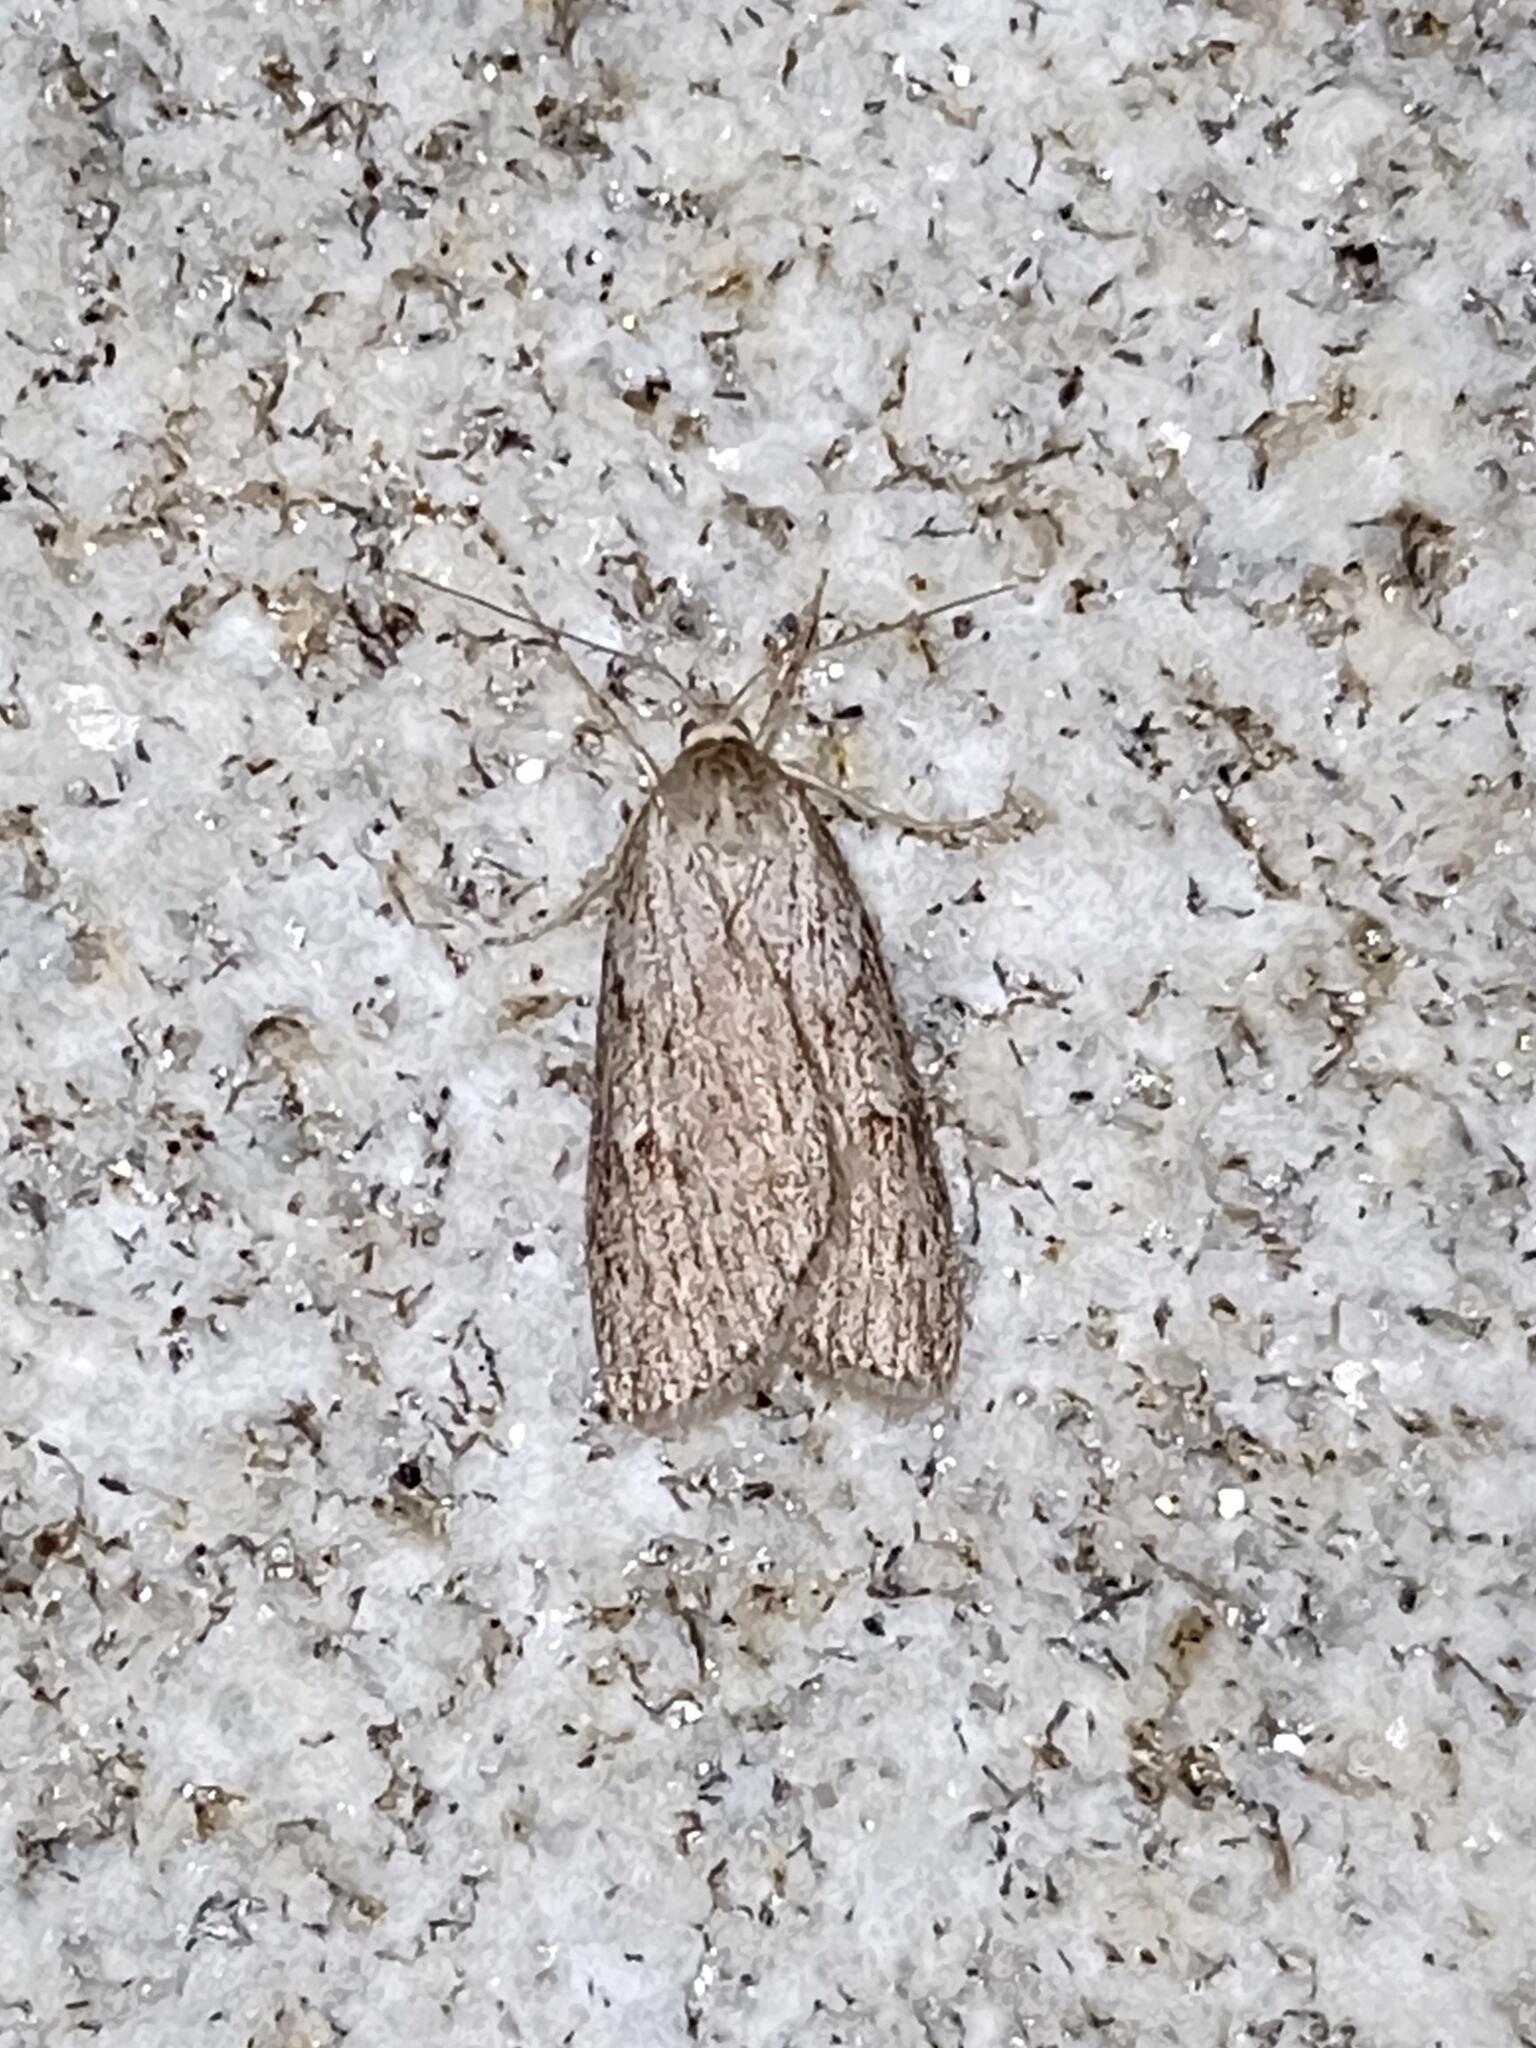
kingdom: Animalia
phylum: Arthropoda
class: Insecta
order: Lepidoptera
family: Geometridae
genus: Pachycnemia
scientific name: Pachycnemia hippocastanaria
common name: Horse chestnut
